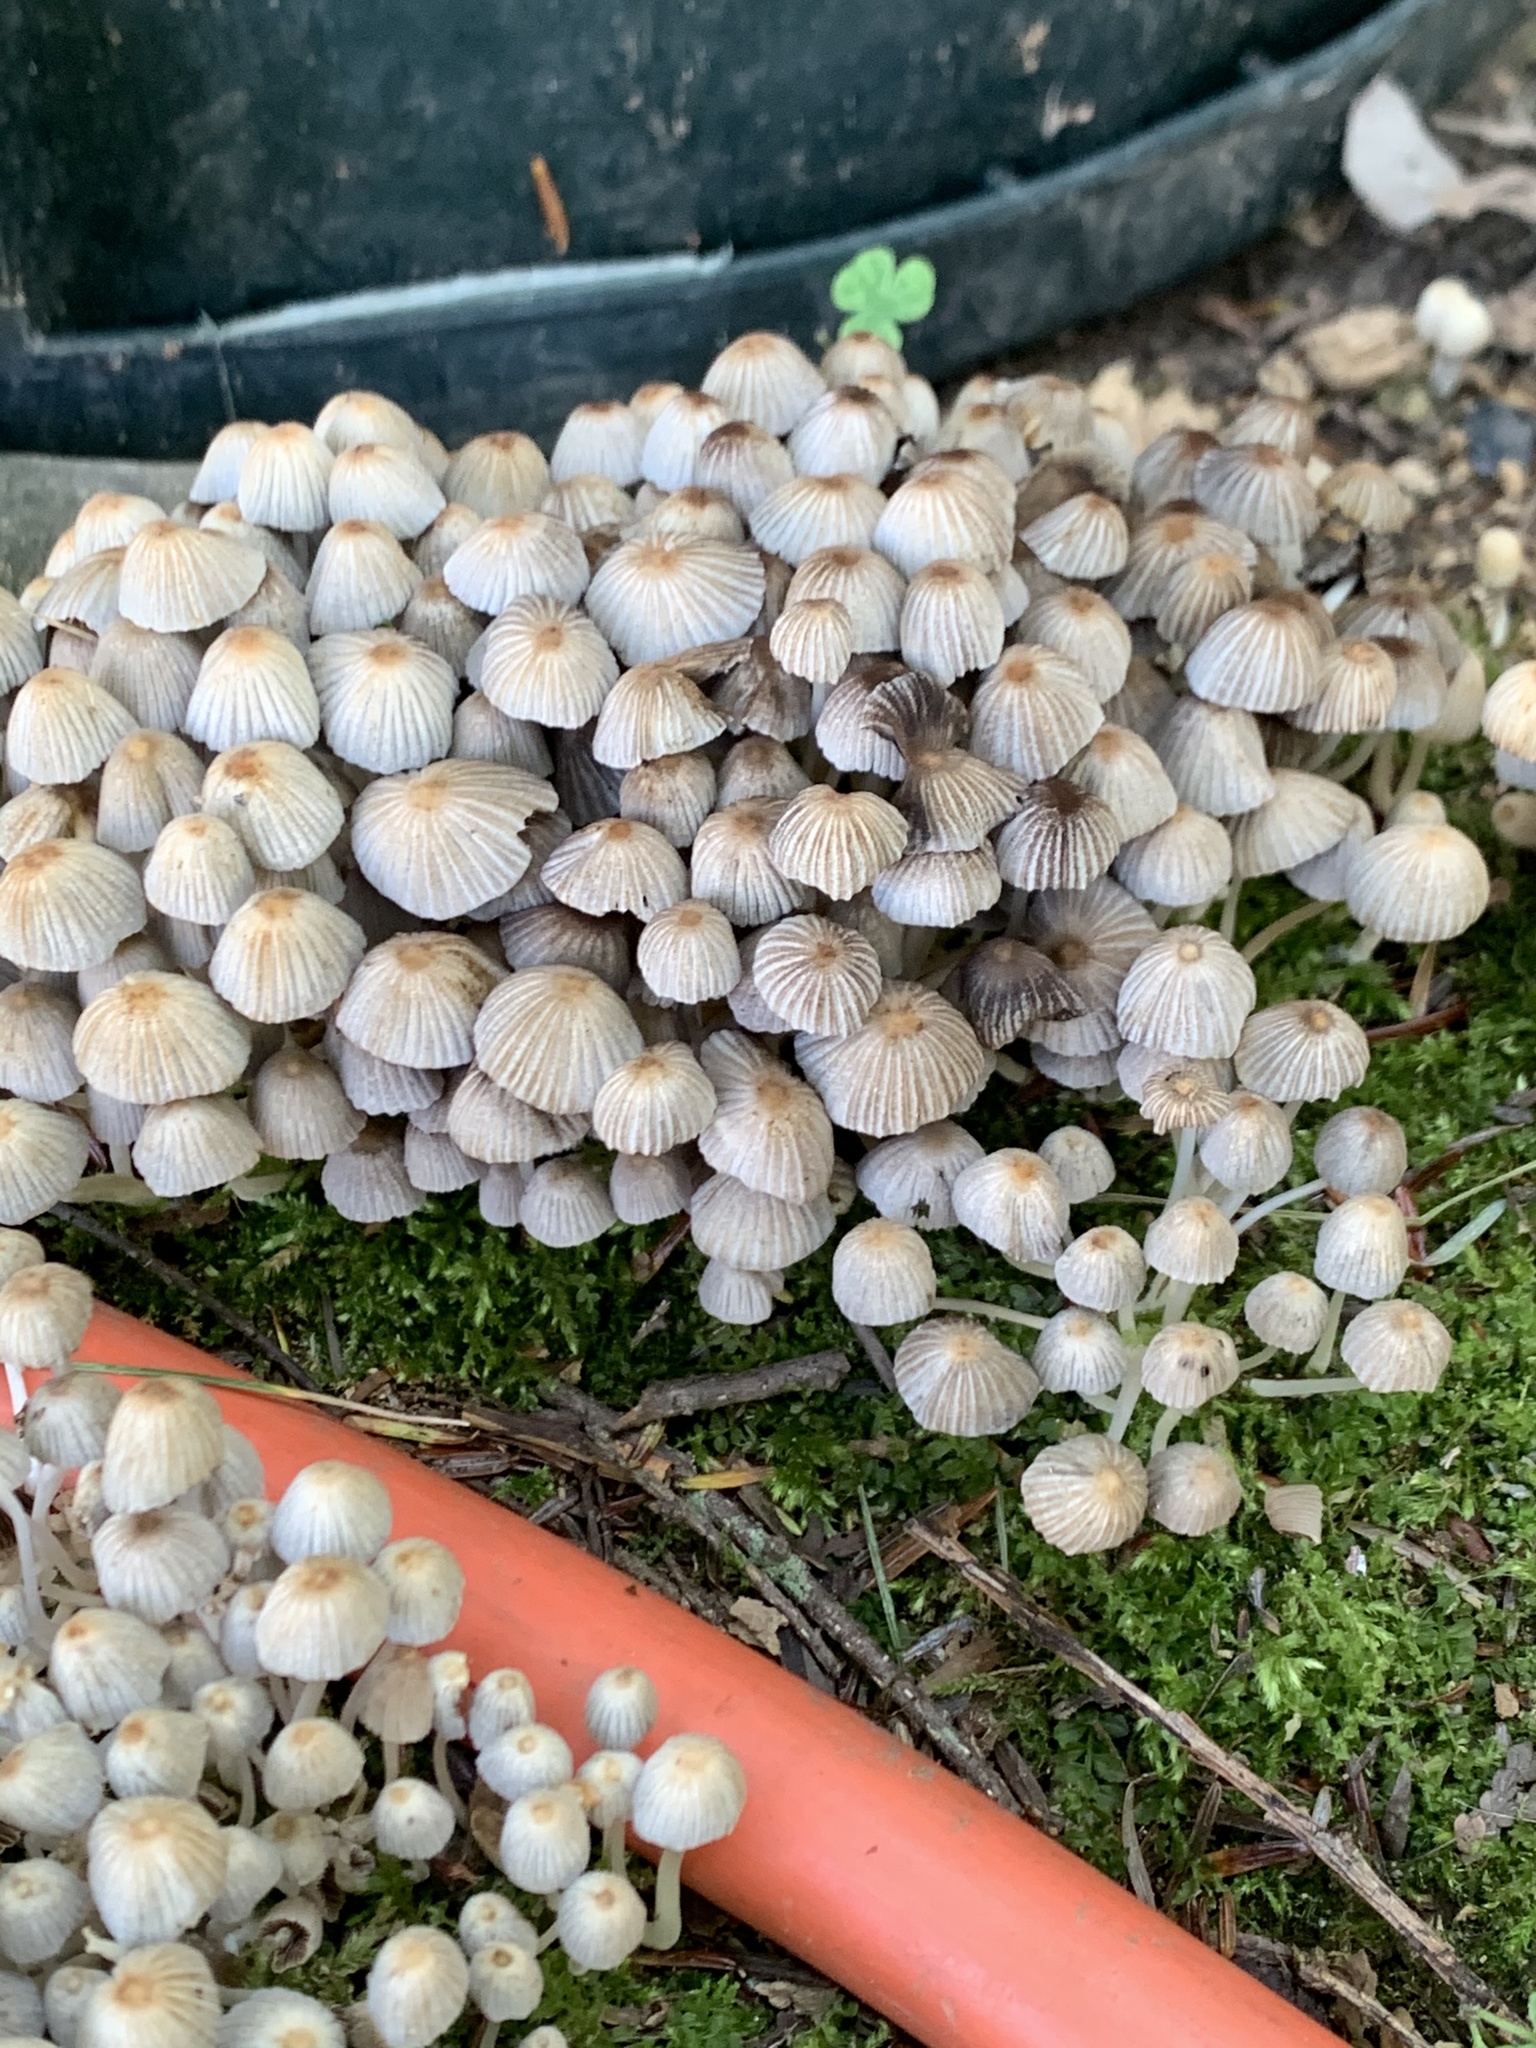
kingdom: Fungi
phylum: Basidiomycota
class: Agaricomycetes
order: Agaricales
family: Psathyrellaceae
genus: Coprinellus
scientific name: Coprinellus disseminatus
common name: Fairies' bonnets
